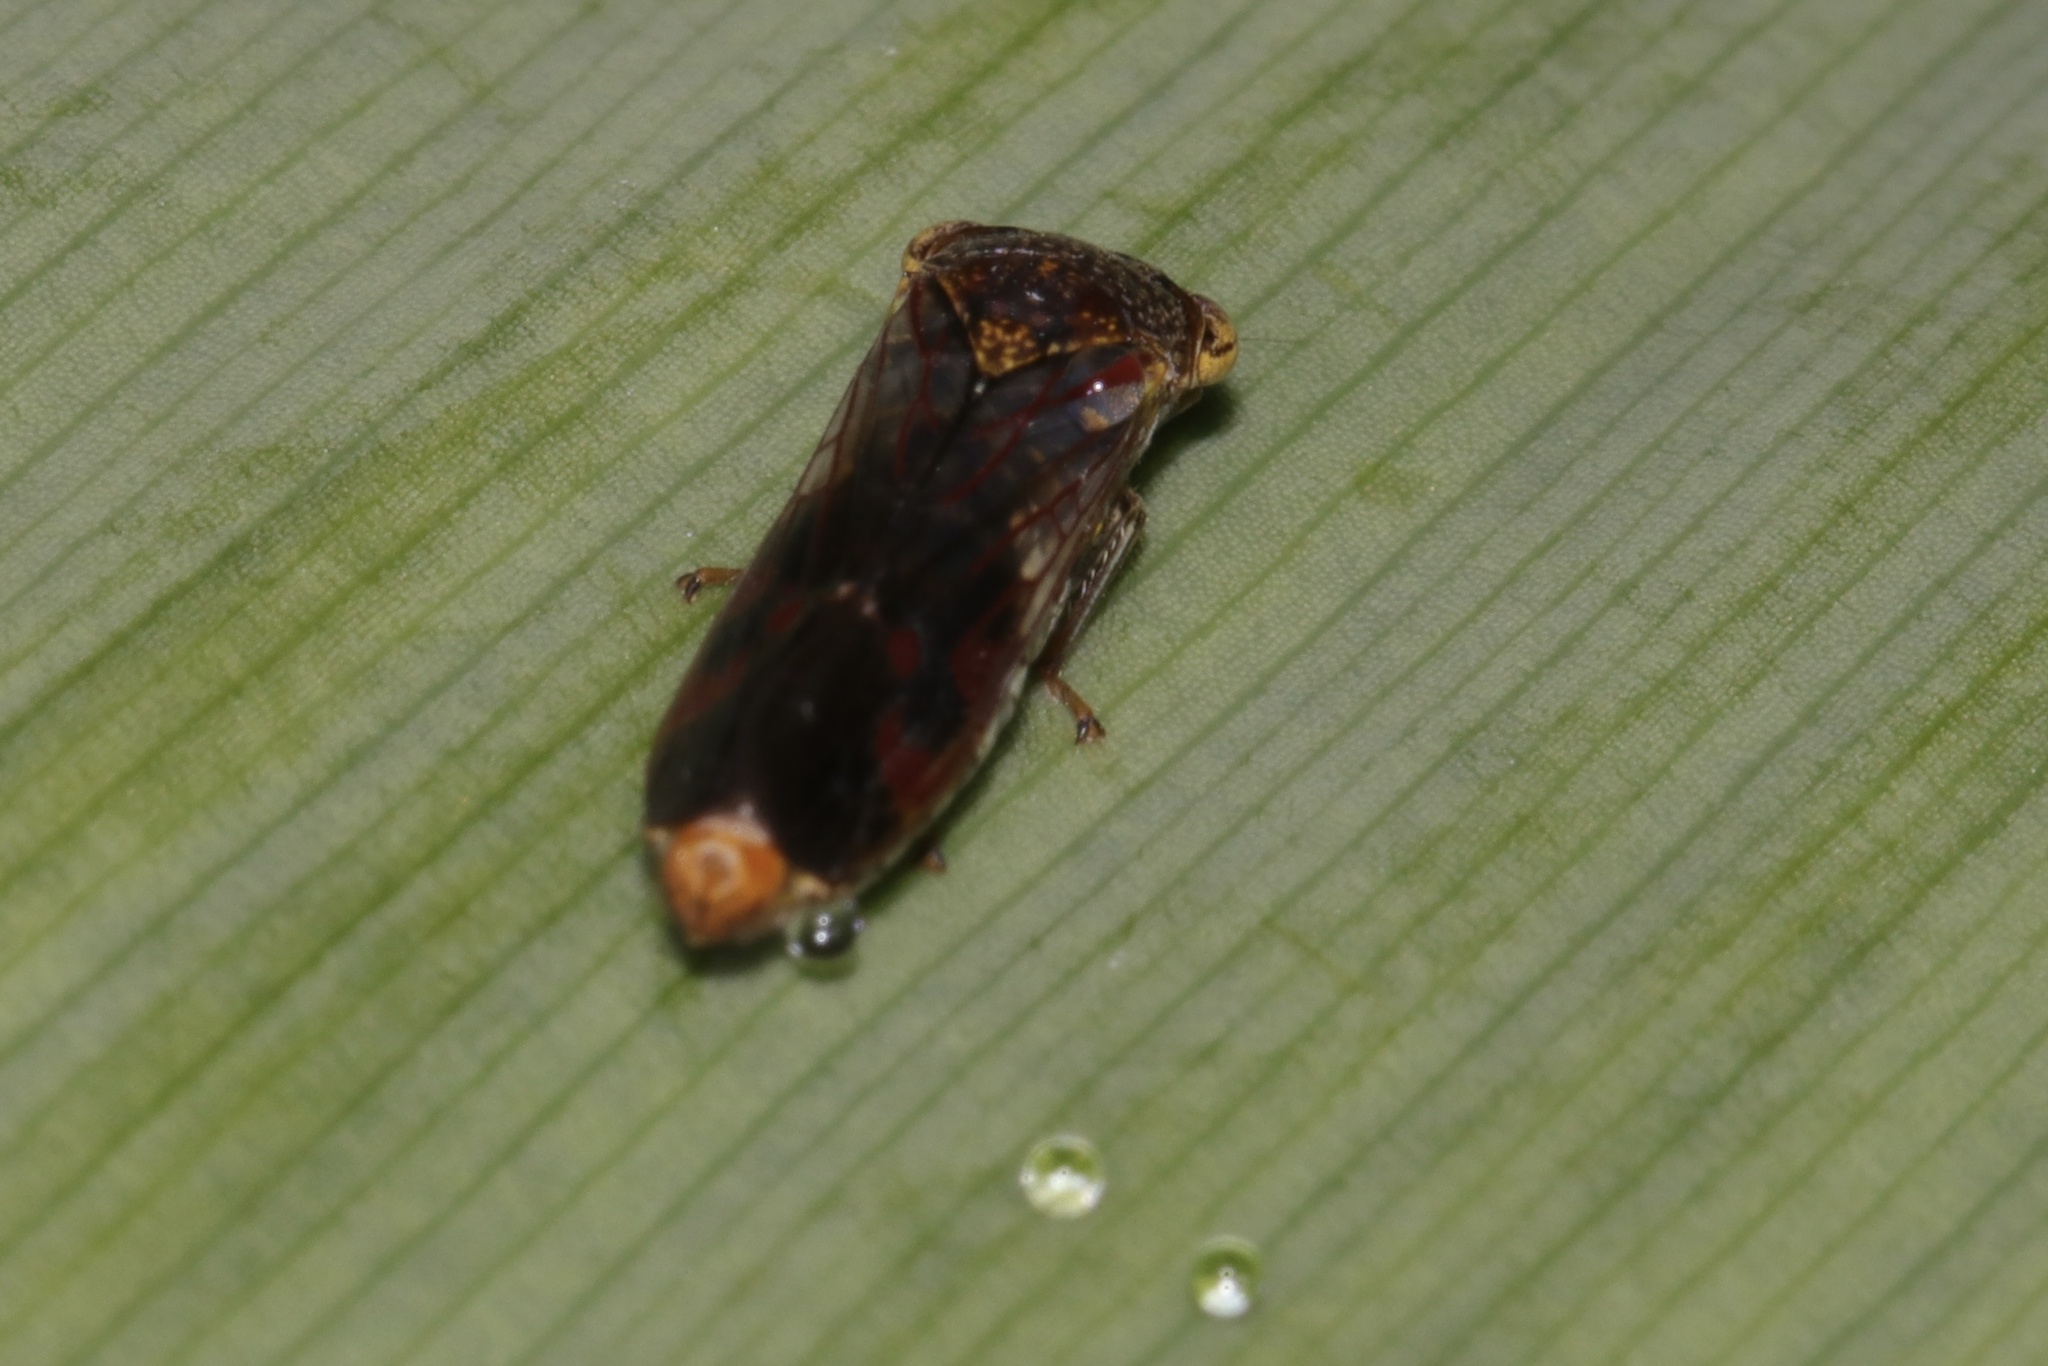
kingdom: Animalia
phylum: Arthropoda
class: Insecta
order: Hemiptera
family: Cicadellidae
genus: Homalodisca
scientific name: Homalodisca vitripennis
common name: Glassy-winged sharpshooter
